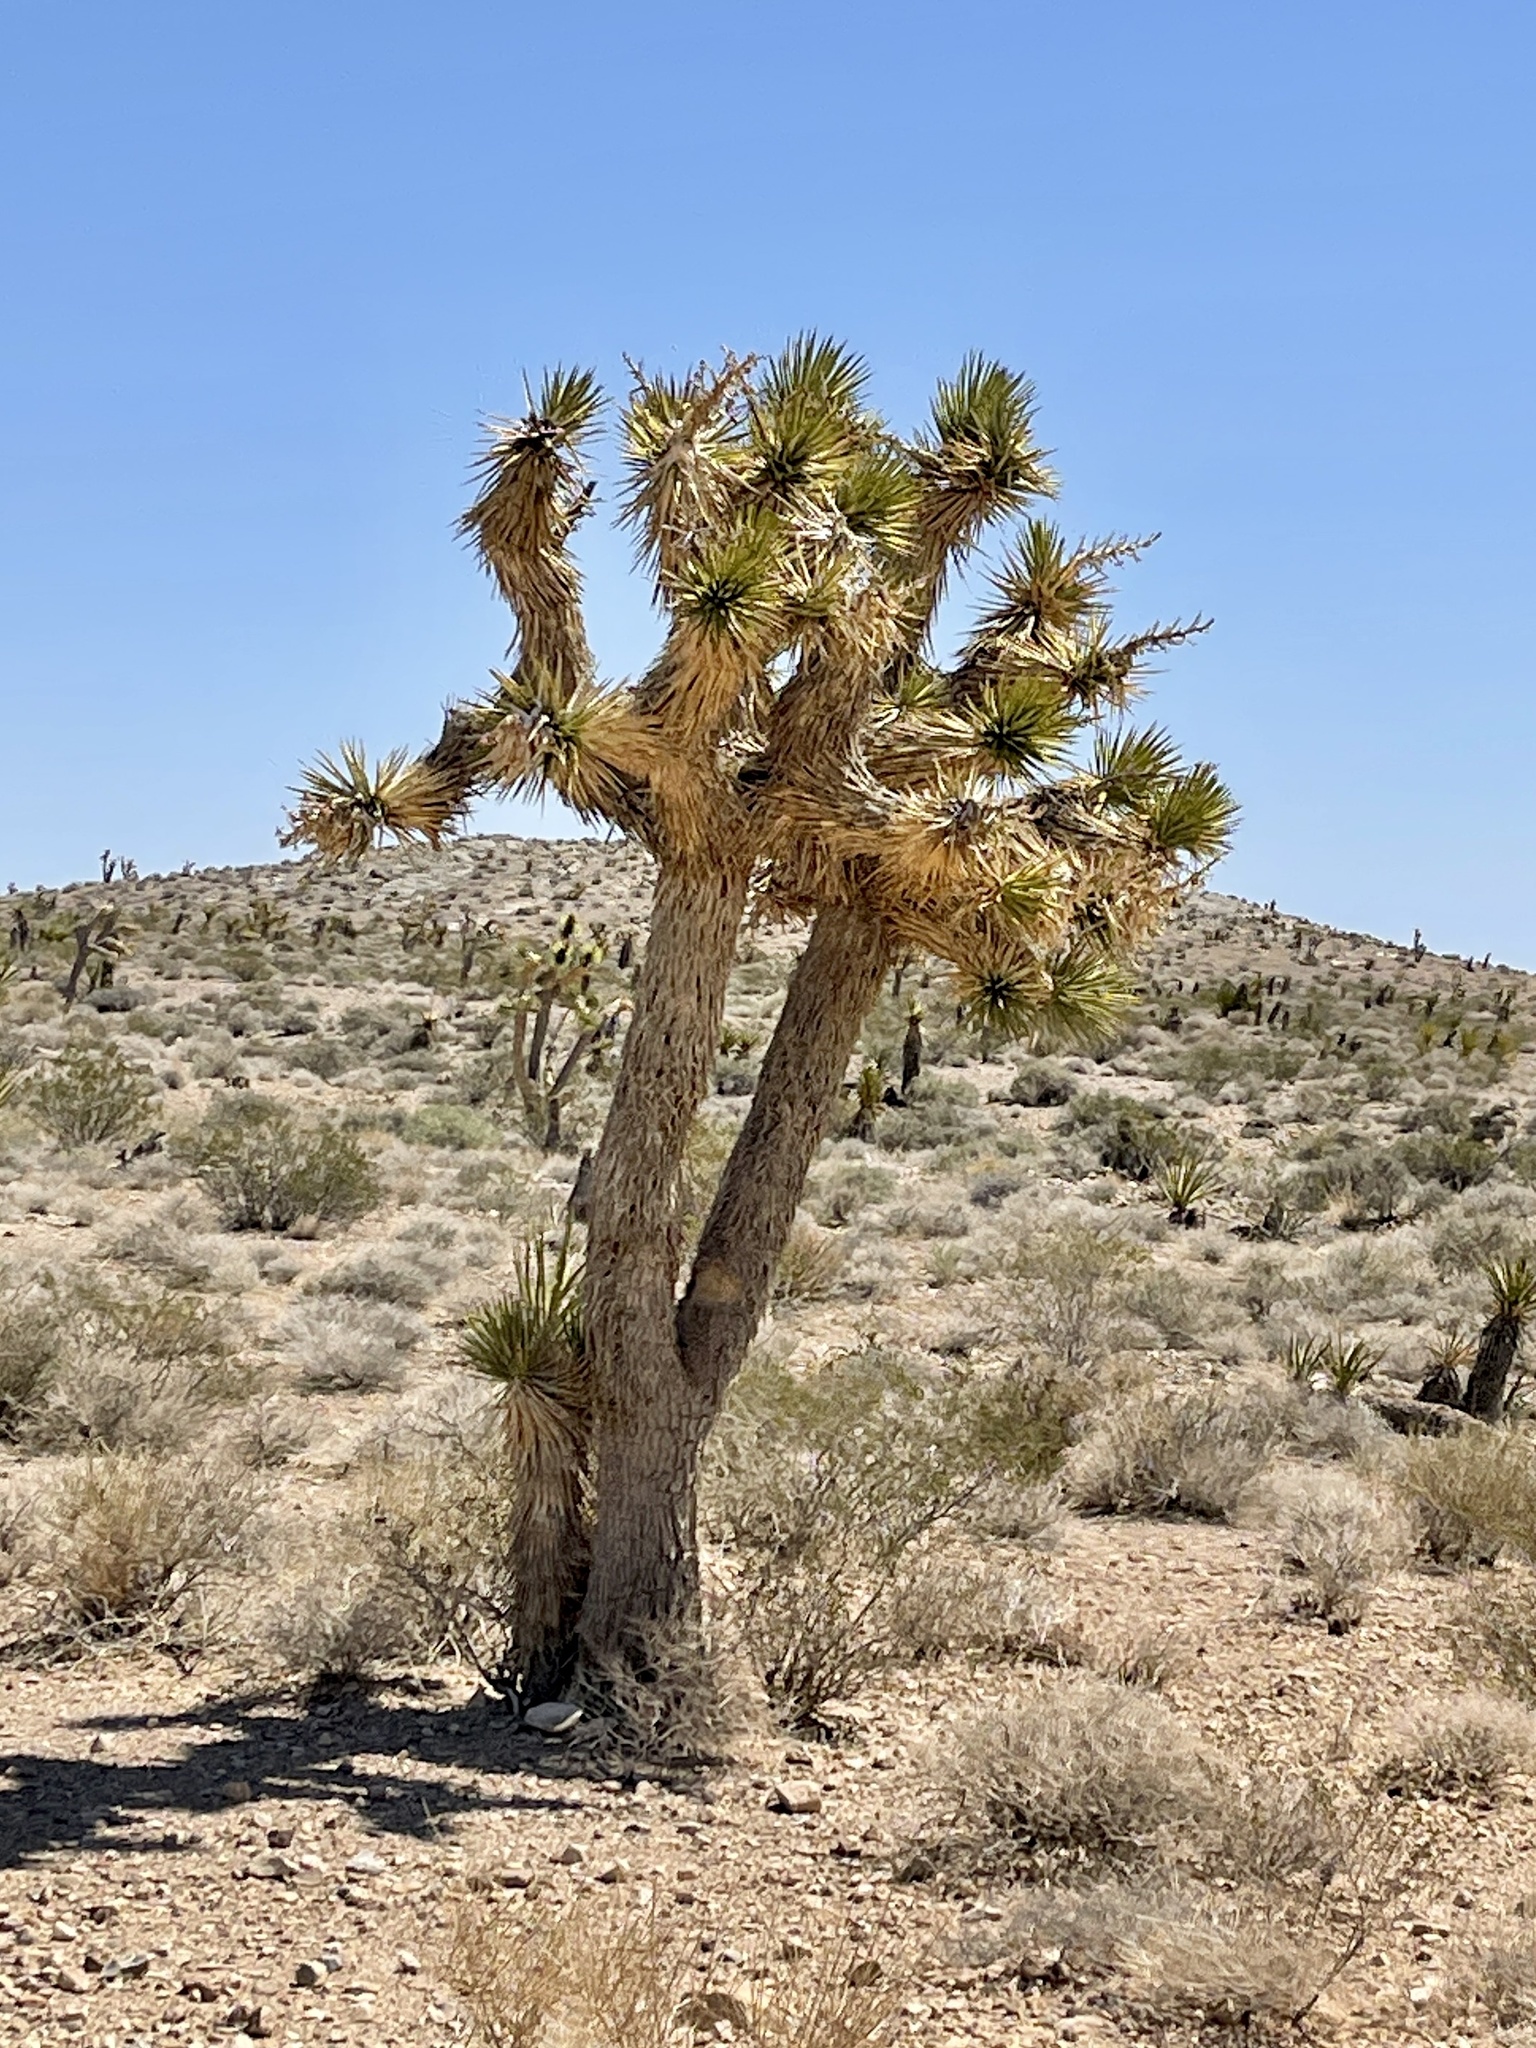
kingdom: Plantae
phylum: Tracheophyta
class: Liliopsida
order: Asparagales
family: Asparagaceae
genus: Yucca
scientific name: Yucca brevifolia
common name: Joshua tree
